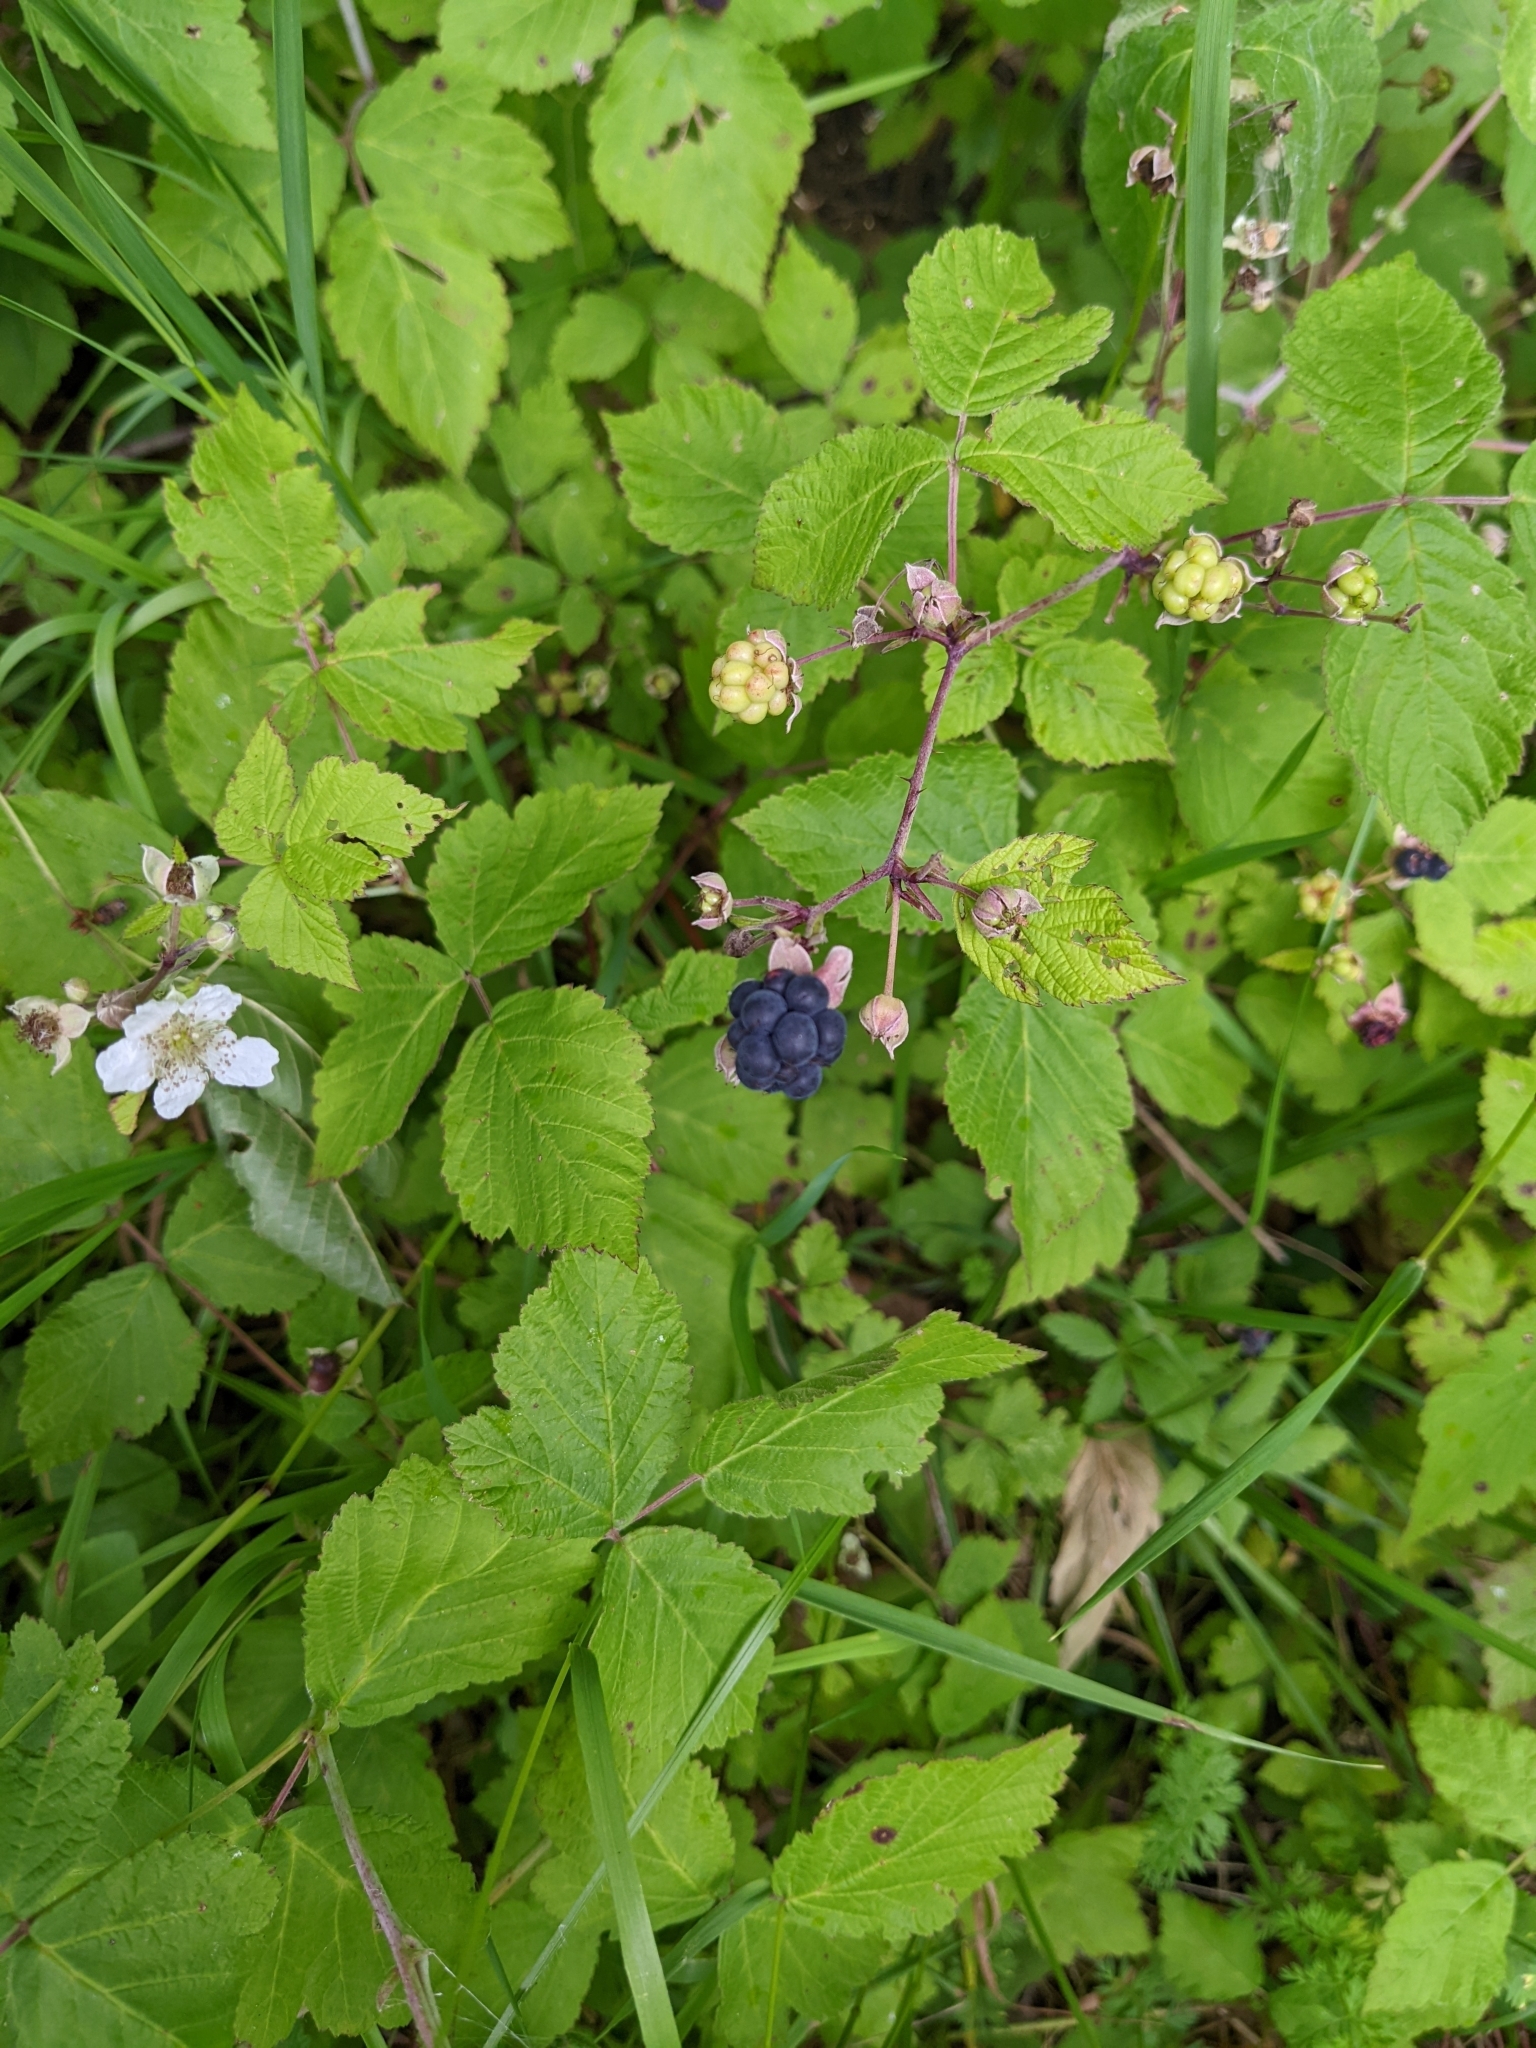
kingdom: Plantae
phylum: Tracheophyta
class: Magnoliopsida
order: Rosales
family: Rosaceae
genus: Rubus
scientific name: Rubus caesius
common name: Dewberry
